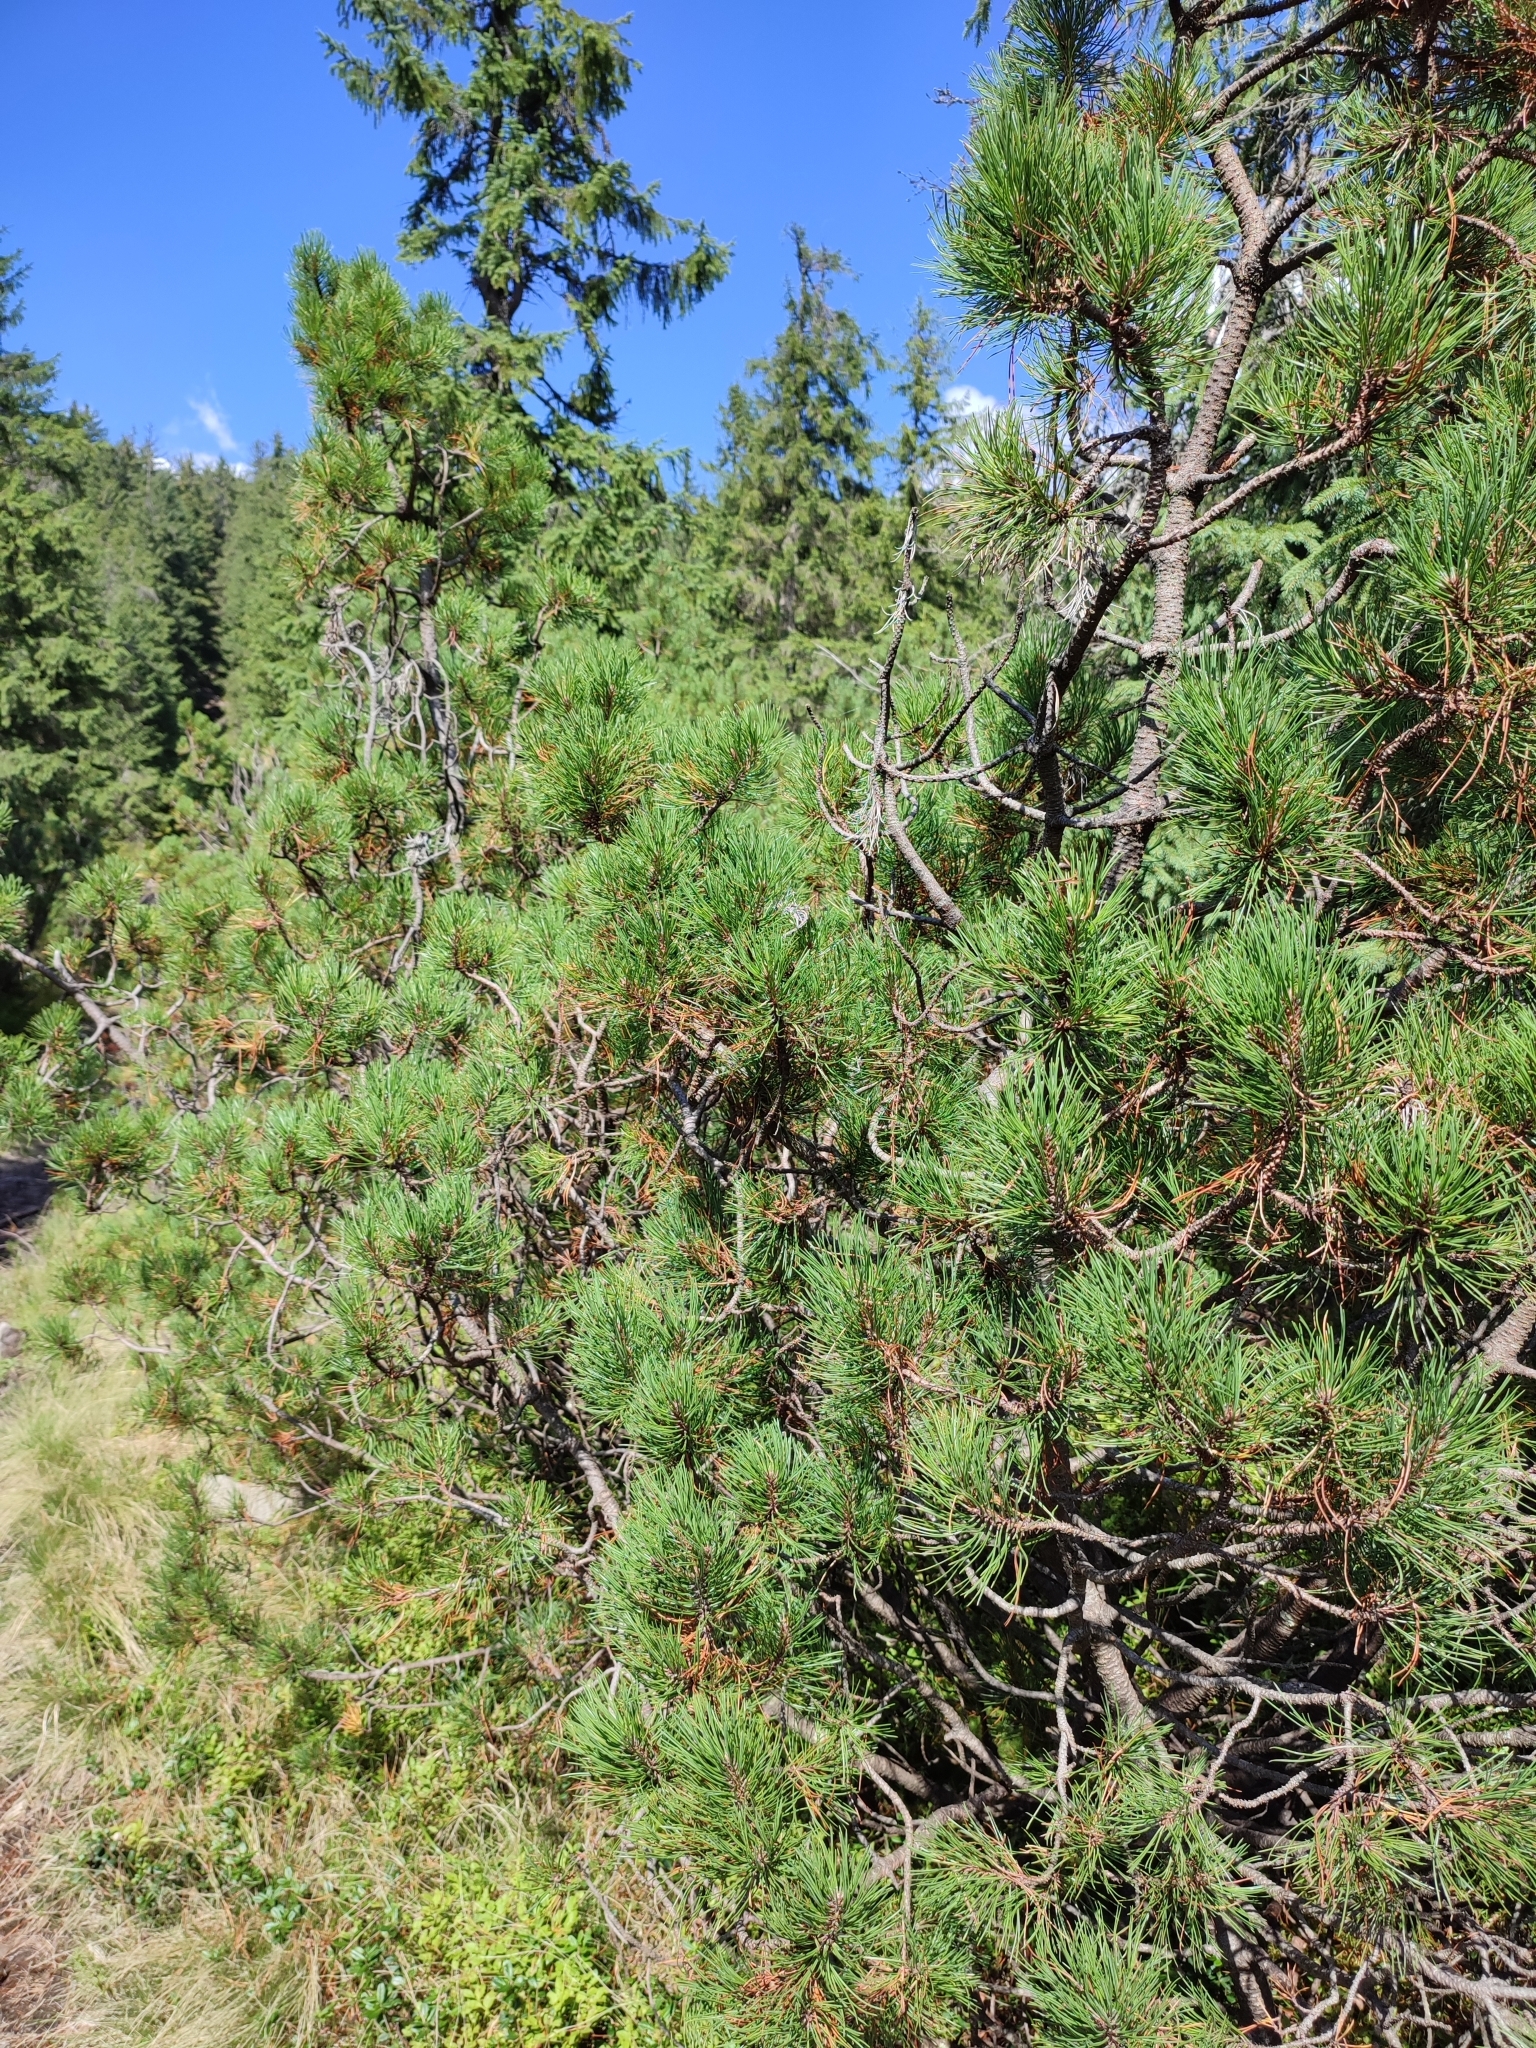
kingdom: Plantae
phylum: Tracheophyta
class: Pinopsida
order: Pinales
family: Pinaceae
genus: Pinus
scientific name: Pinus mugo
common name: Mugo pine
